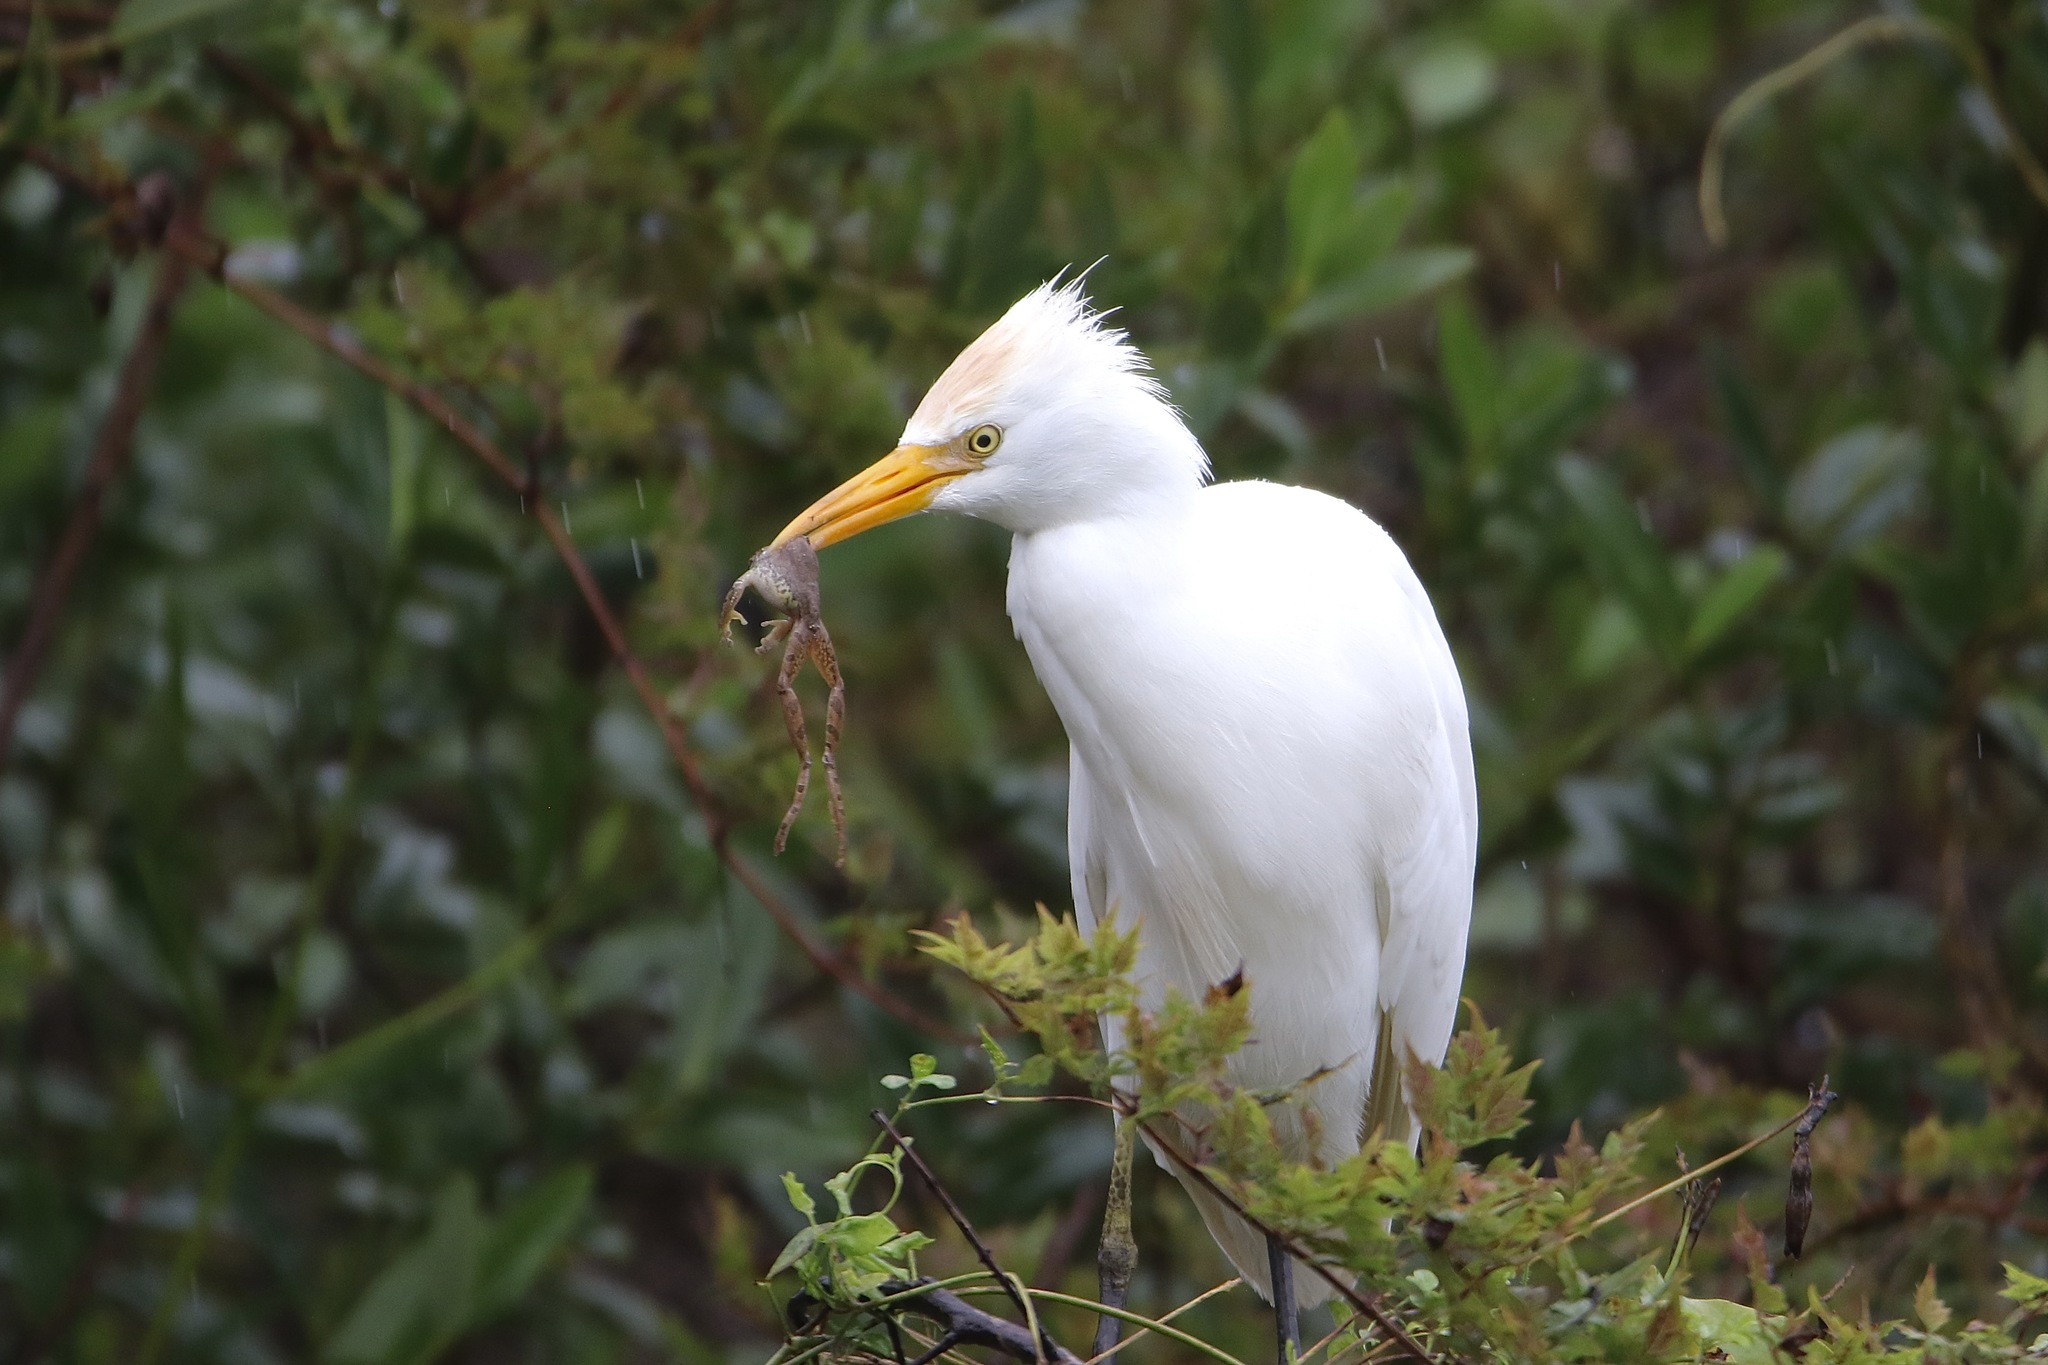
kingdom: Animalia
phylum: Chordata
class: Aves
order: Pelecaniformes
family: Ardeidae
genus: Bubulcus
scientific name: Bubulcus ibis
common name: Cattle egret
